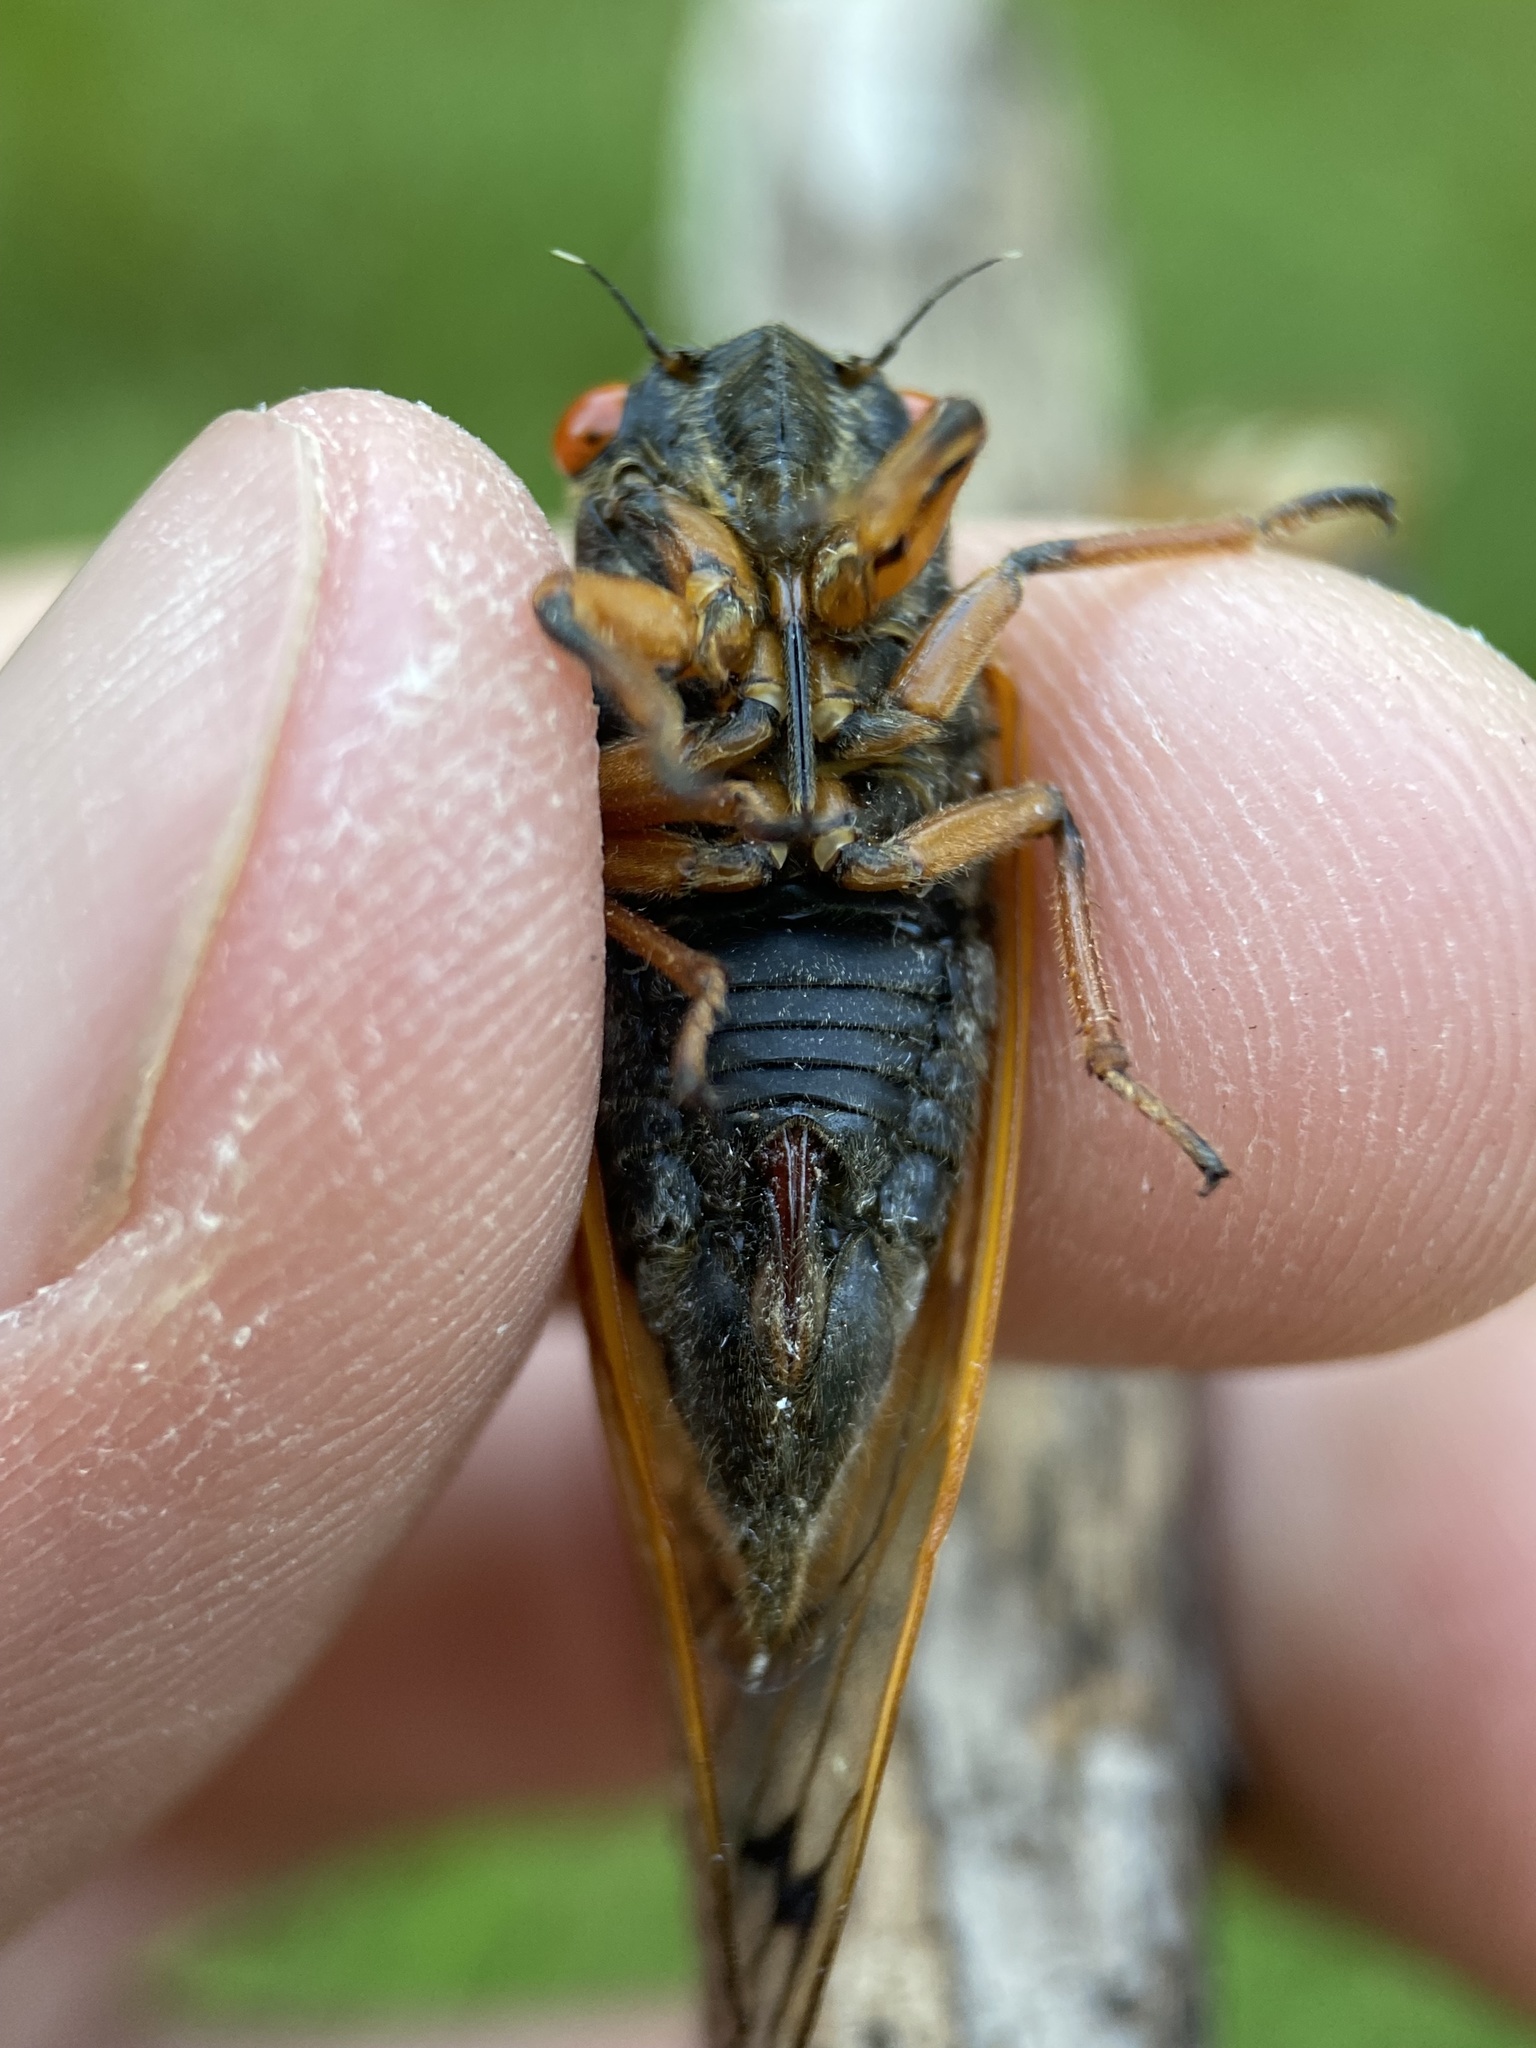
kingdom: Animalia
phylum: Arthropoda
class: Insecta
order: Hemiptera
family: Cicadidae
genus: Magicicada
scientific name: Magicicada cassini
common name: Cassin's 17-year cicada
